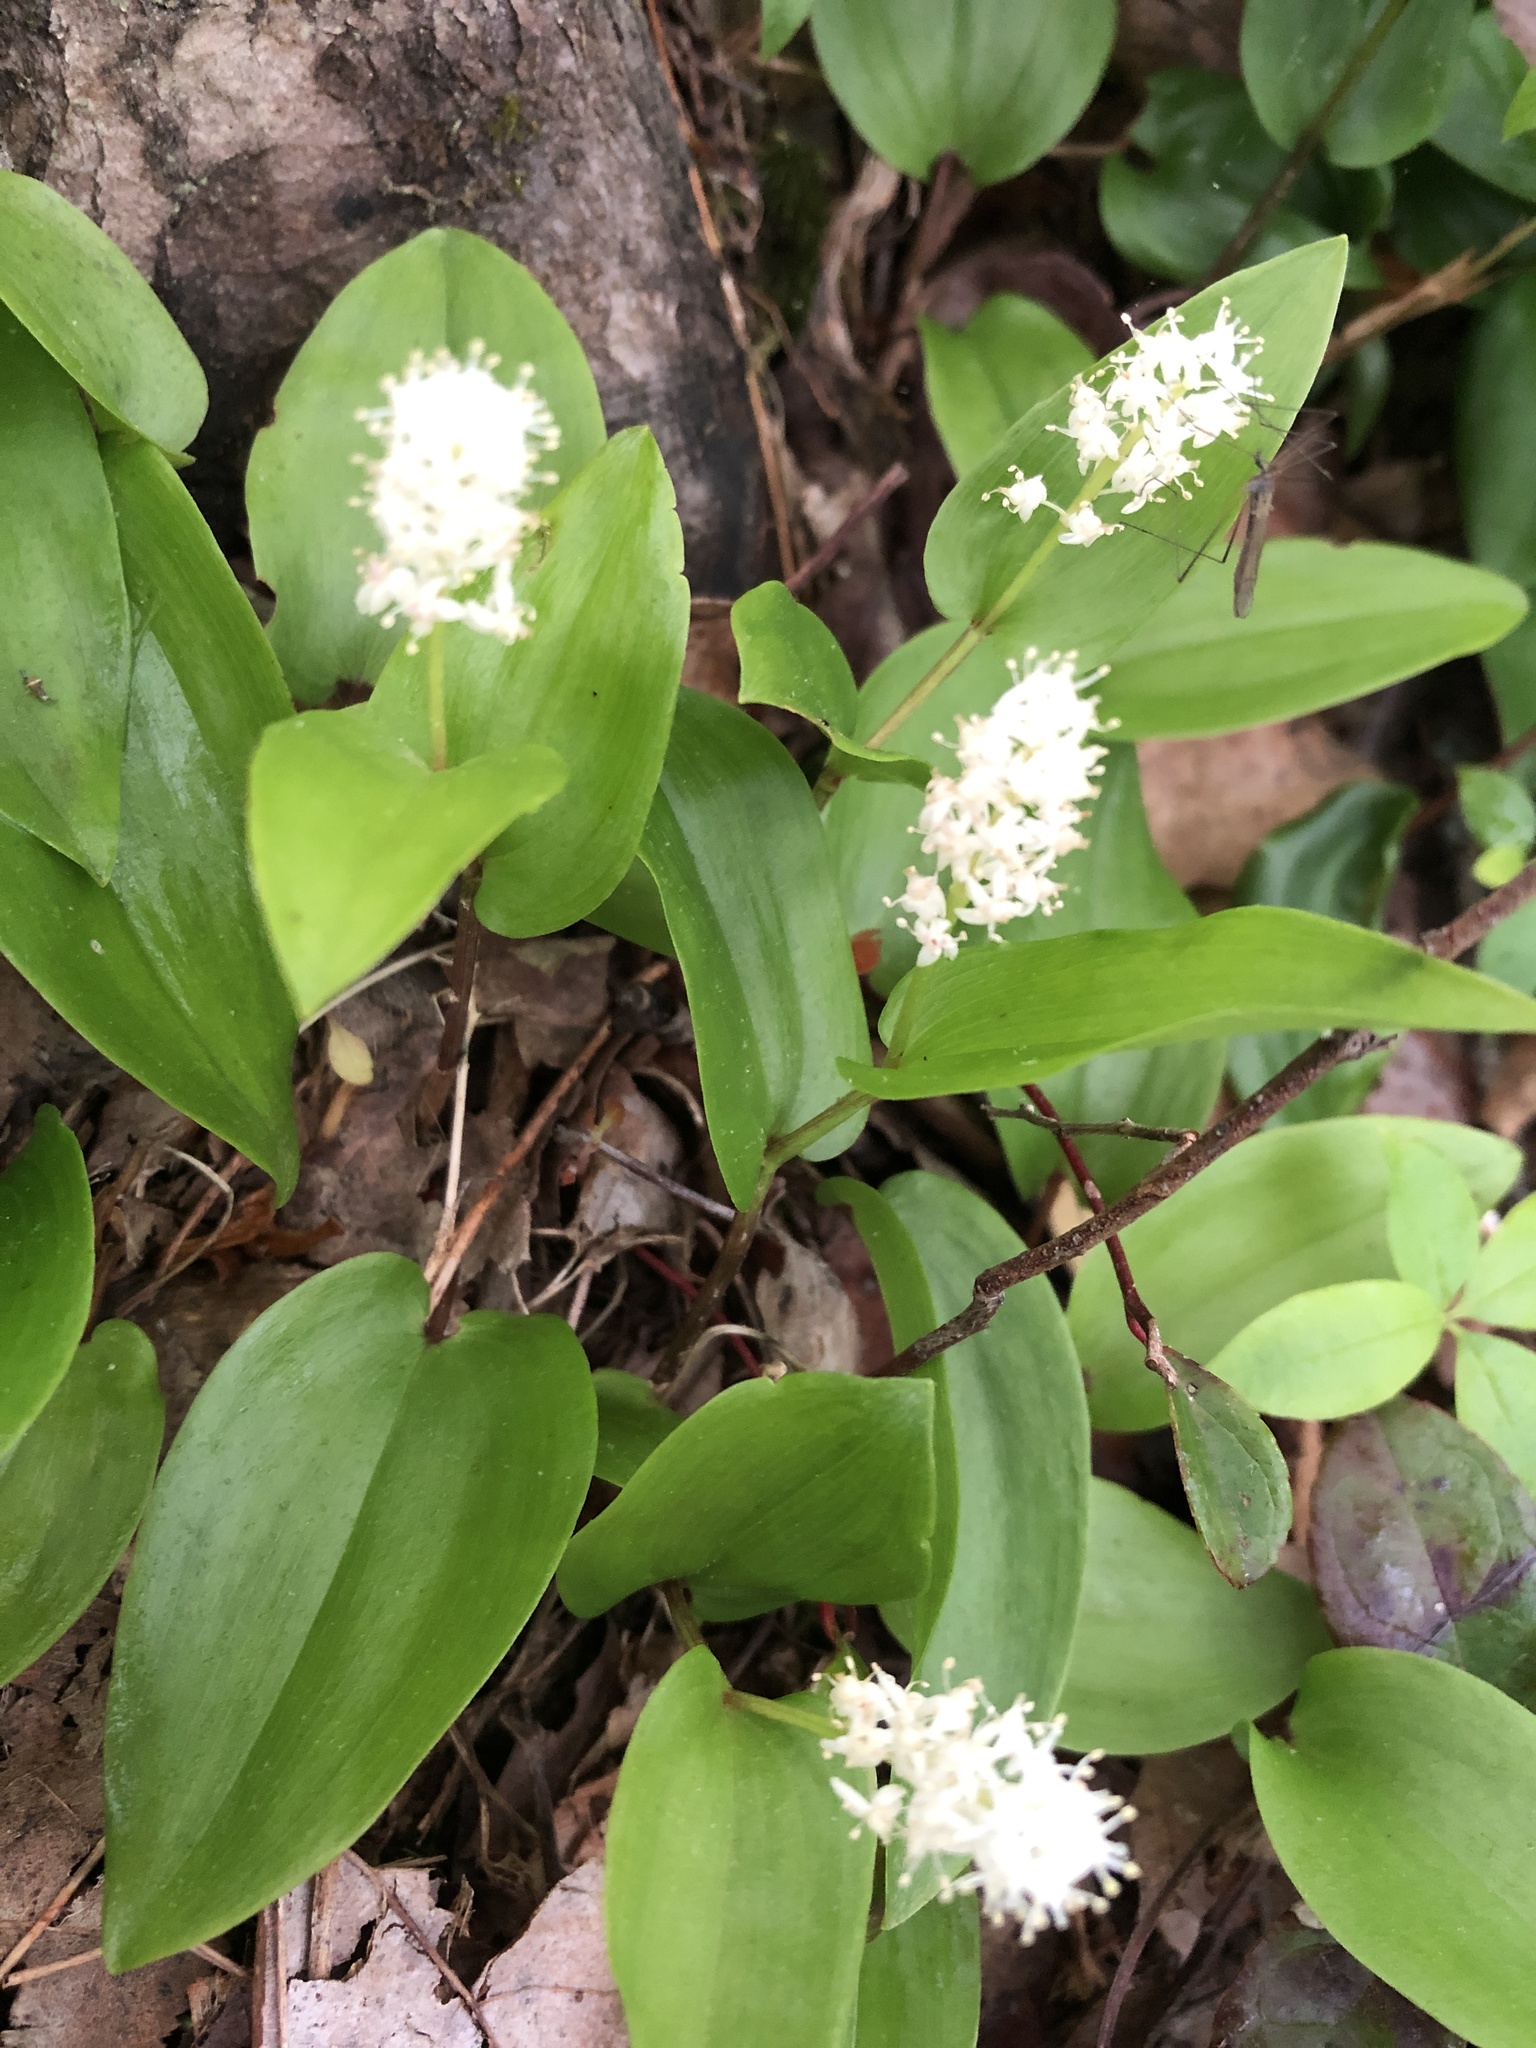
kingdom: Plantae
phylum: Tracheophyta
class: Liliopsida
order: Asparagales
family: Asparagaceae
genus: Maianthemum
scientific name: Maianthemum canadense
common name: False lily-of-the-valley
